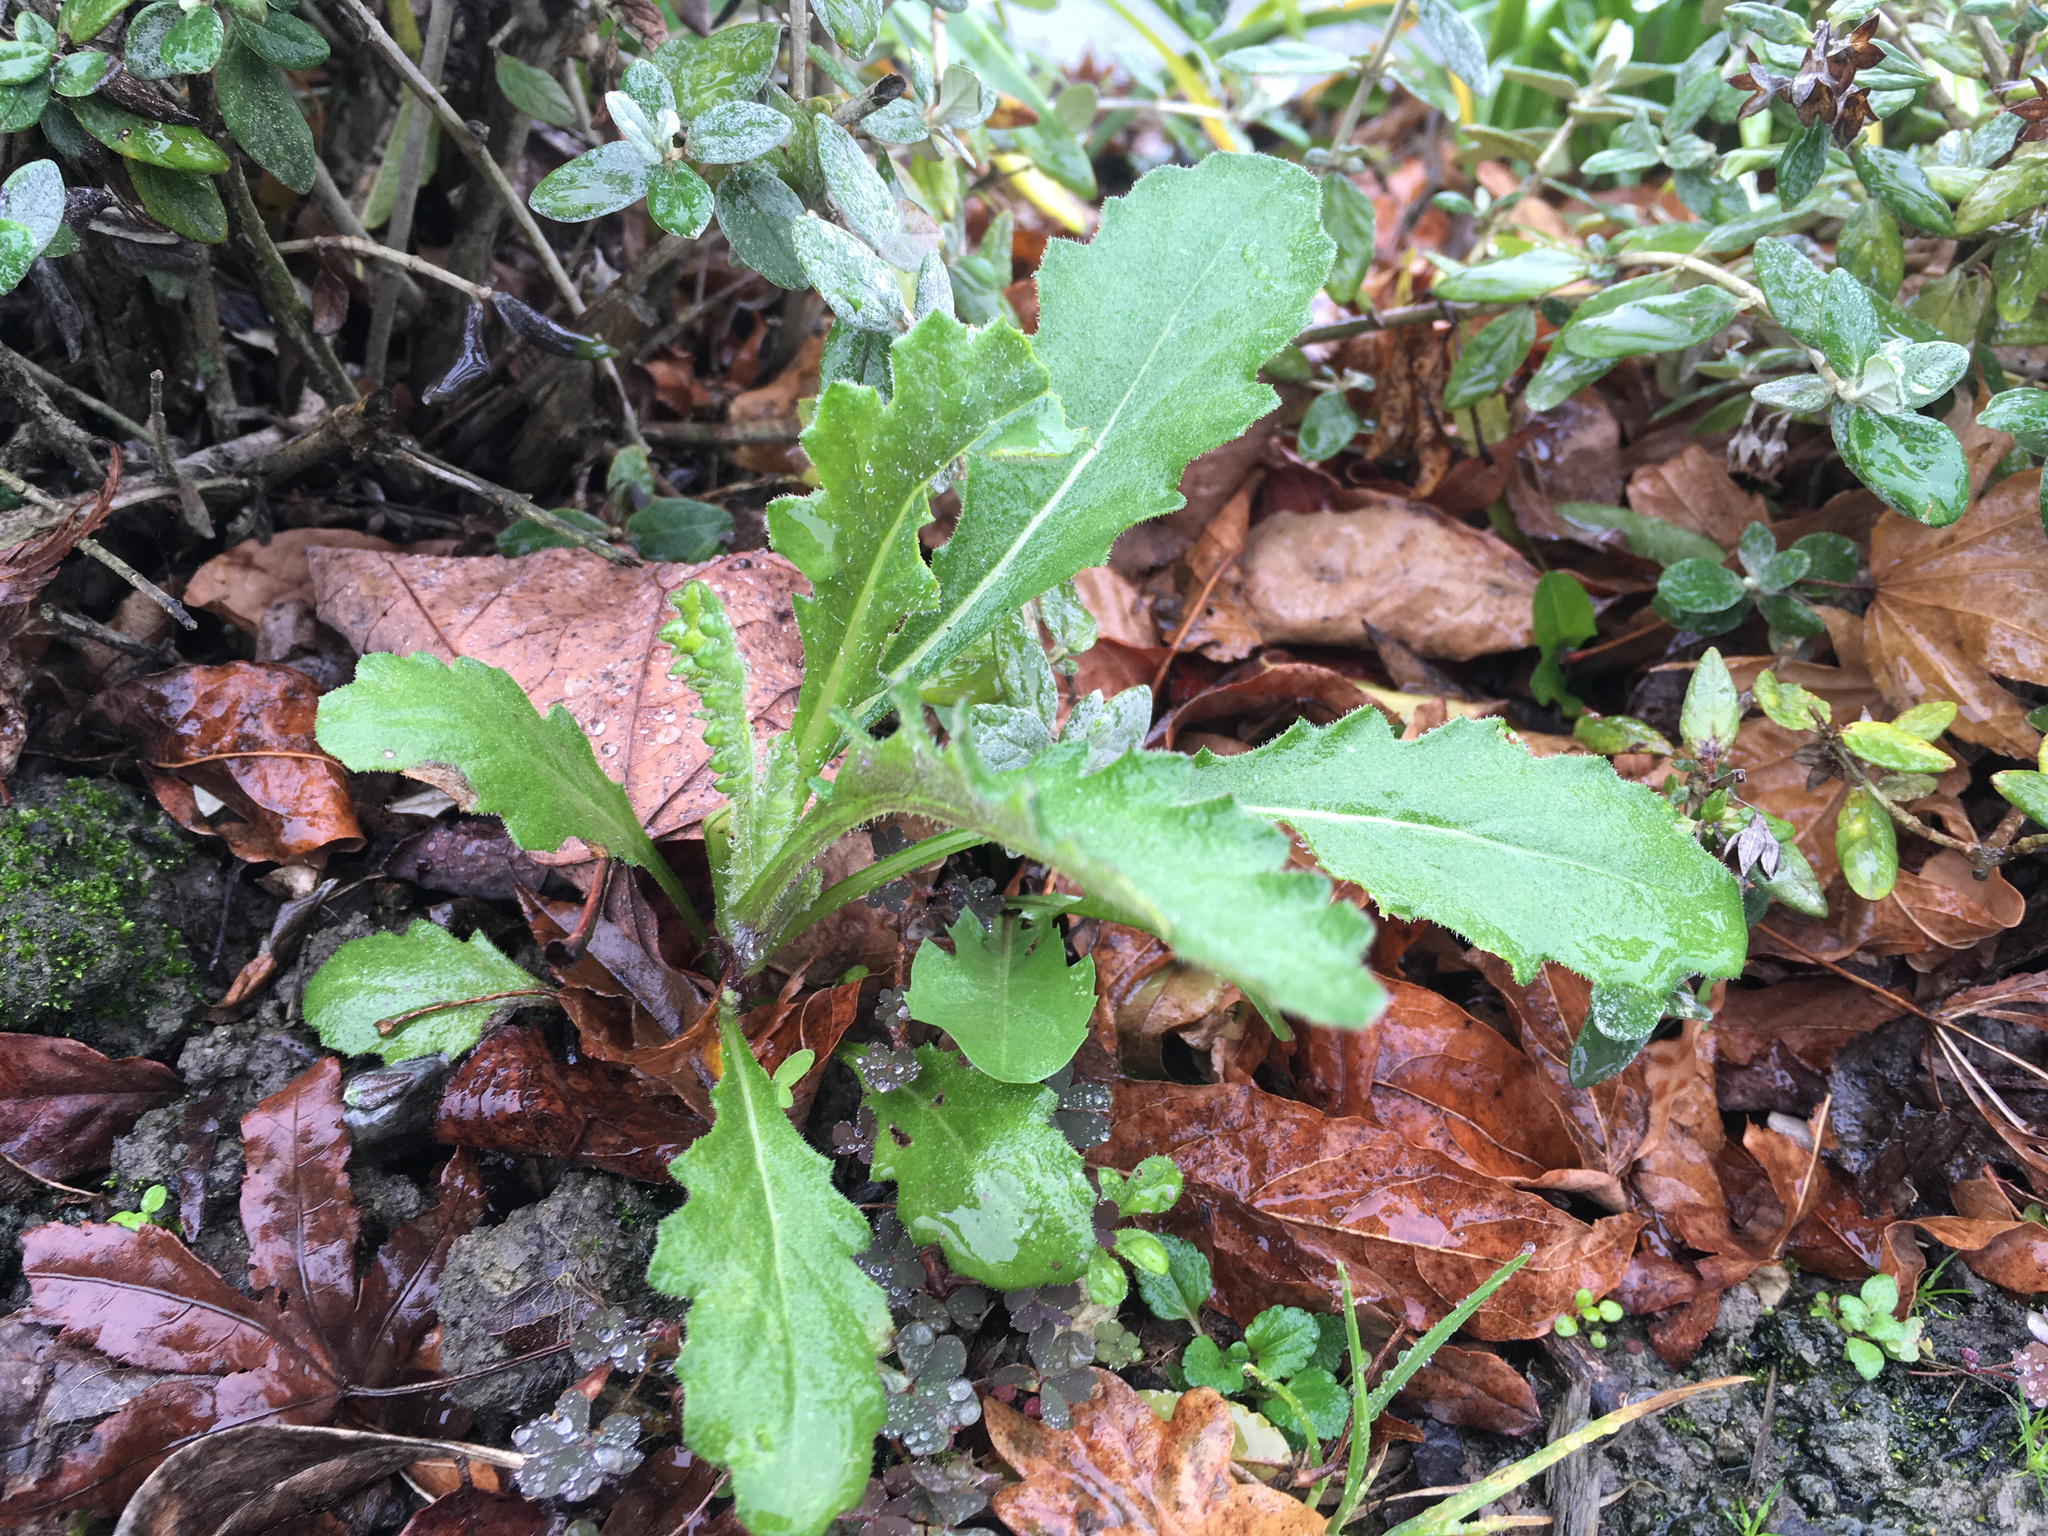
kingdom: Plantae
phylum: Tracheophyta
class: Magnoliopsida
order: Asterales
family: Asteraceae
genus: Senecio
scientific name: Senecio glomeratus
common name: Cutleaf burnweed
